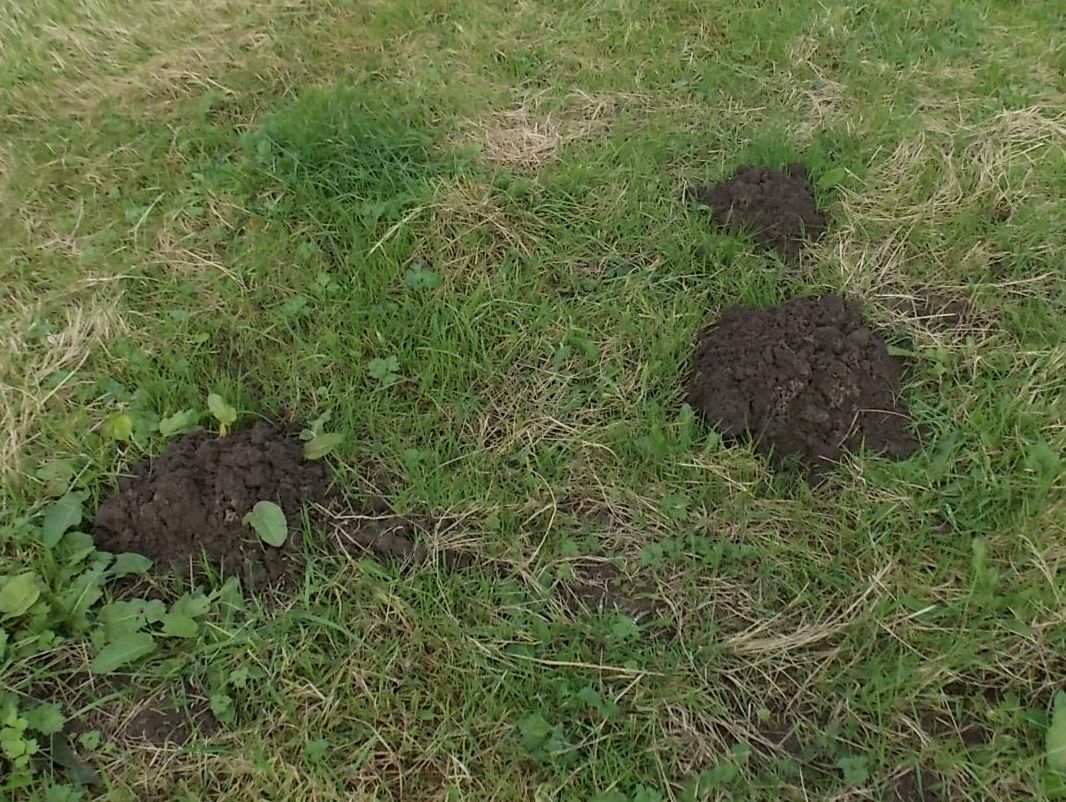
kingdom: Animalia
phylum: Chordata
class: Mammalia
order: Soricomorpha
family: Talpidae
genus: Talpa
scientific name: Talpa europaea
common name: European mole
